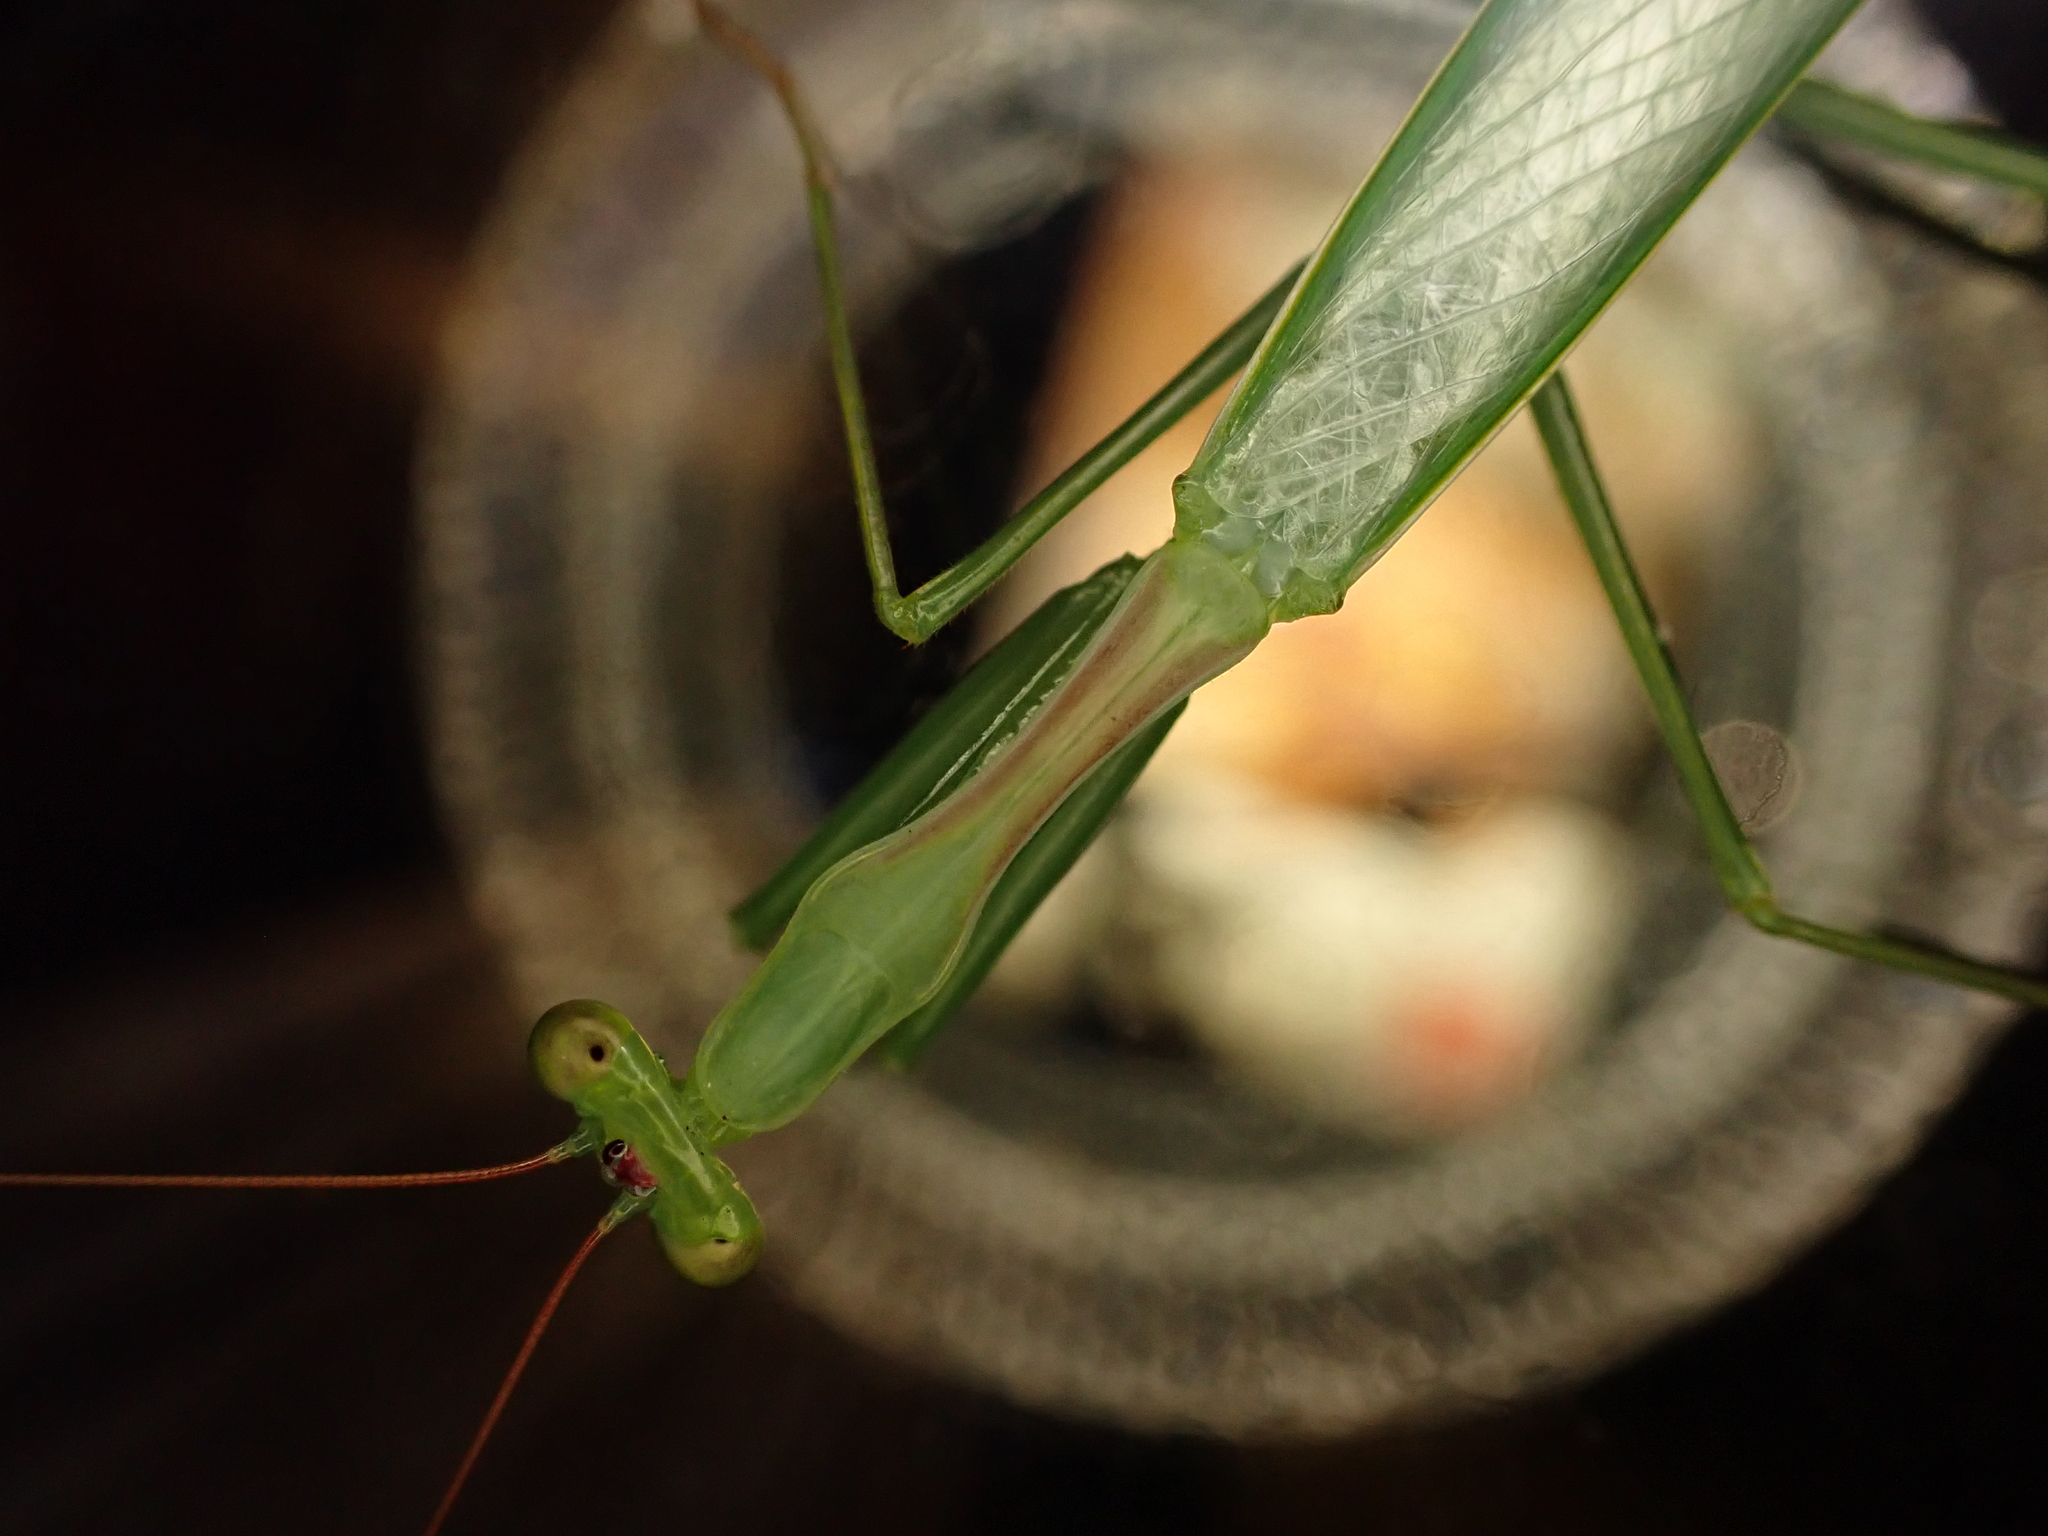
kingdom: Animalia
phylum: Arthropoda
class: Insecta
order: Mantodea
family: Miomantidae
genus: Miomantis
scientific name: Miomantis caffra
